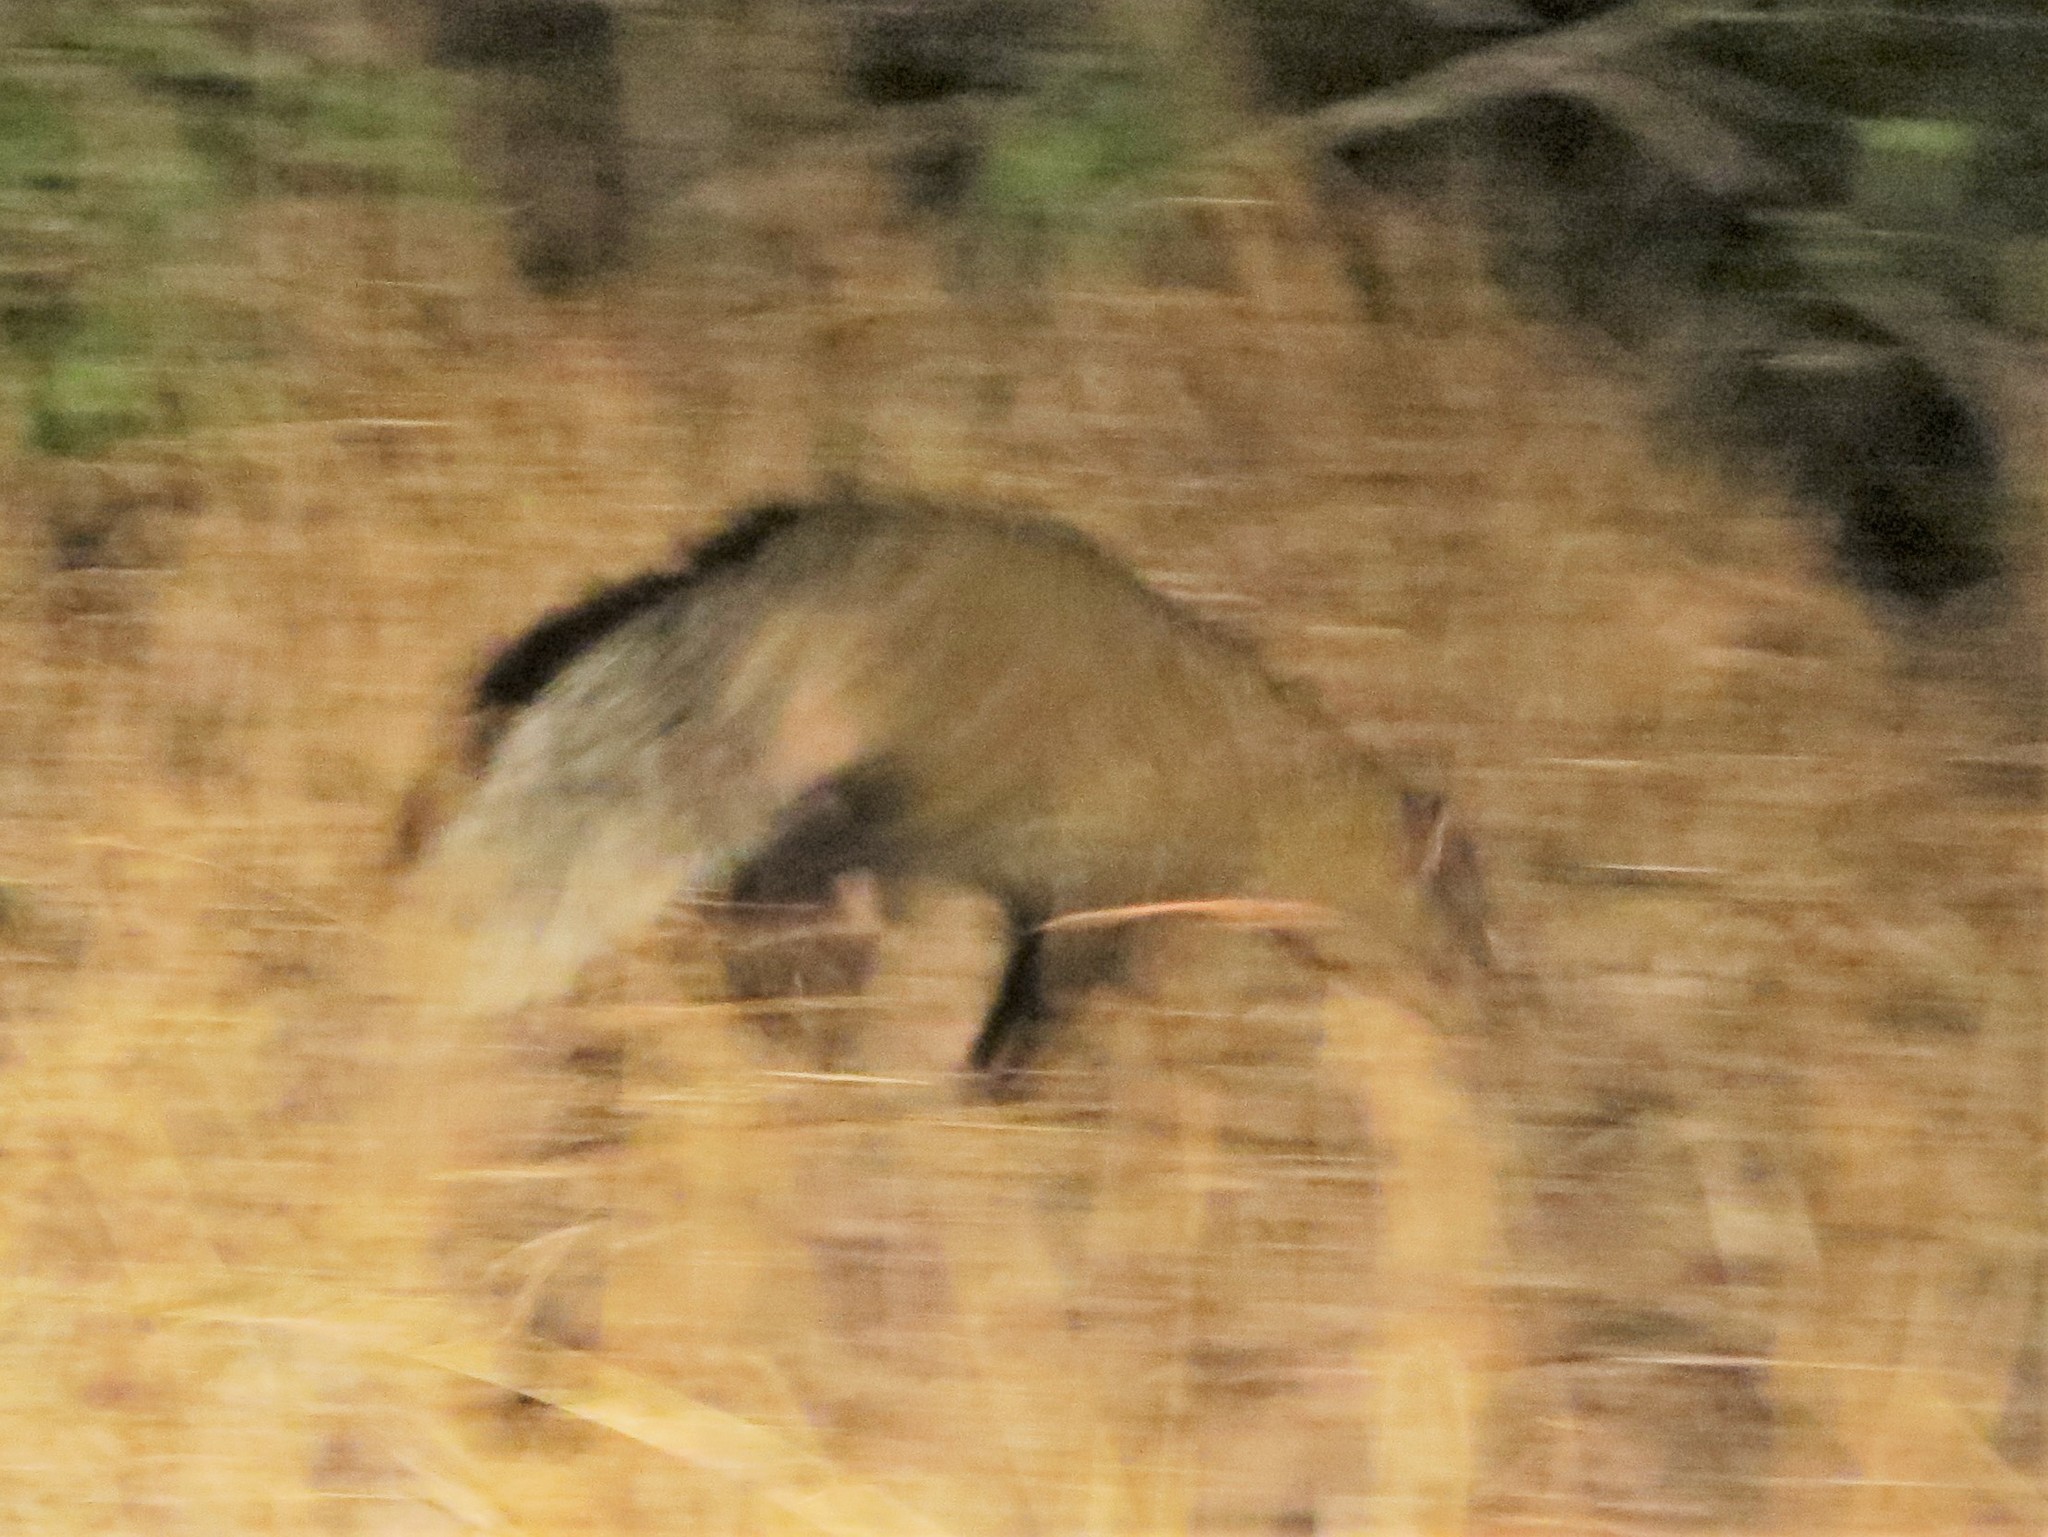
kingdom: Animalia
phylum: Chordata
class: Mammalia
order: Carnivora
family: Herpestidae
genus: Ichneumia
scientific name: Ichneumia albicauda
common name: White-tailed mongoose
